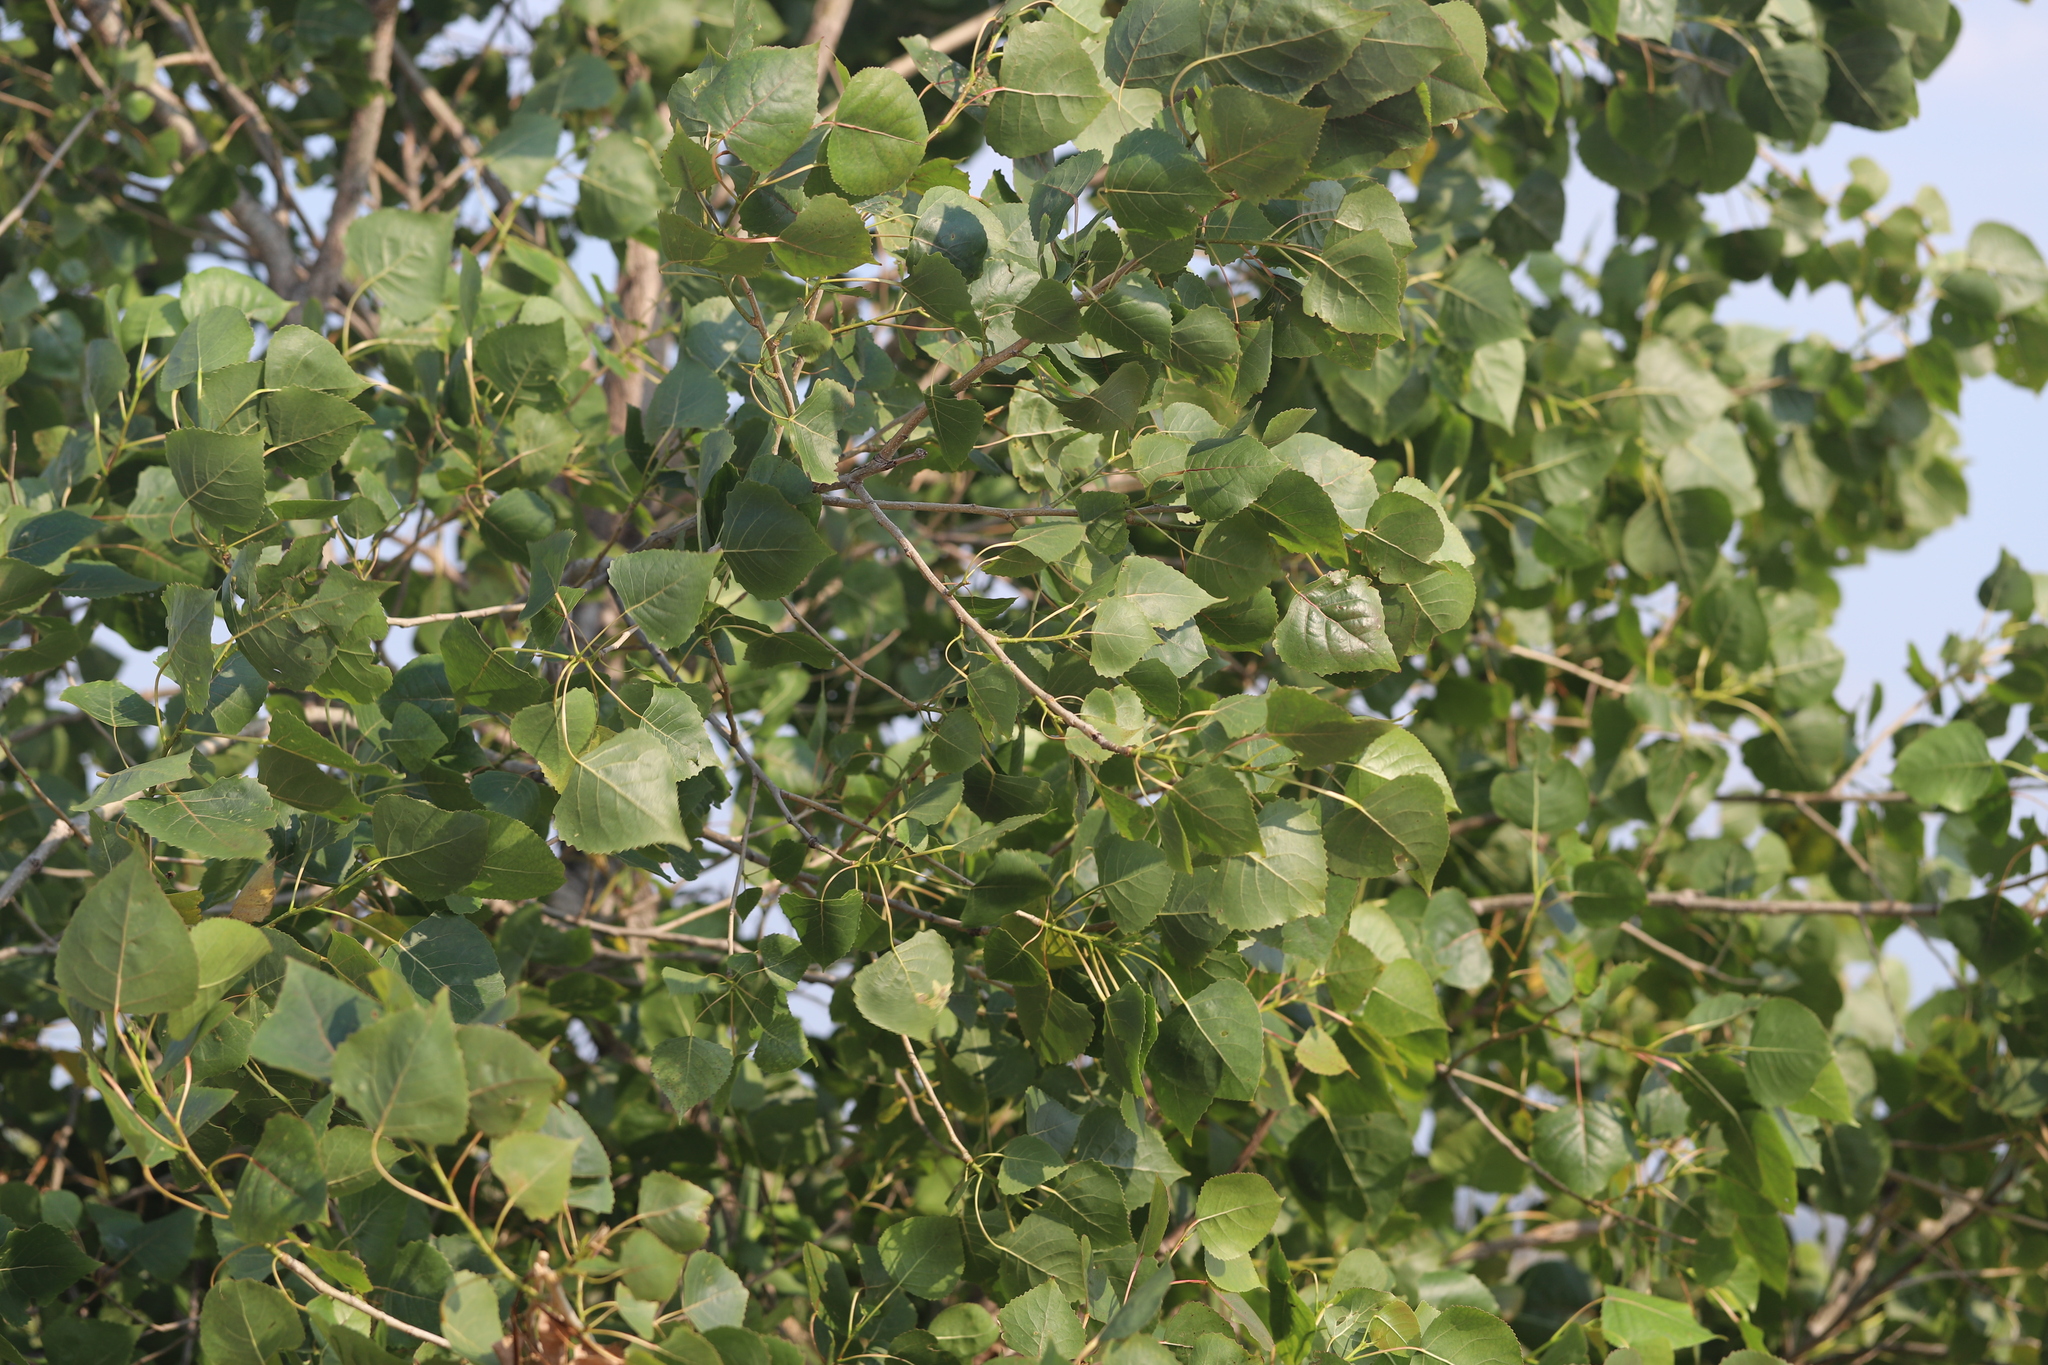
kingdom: Plantae
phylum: Tracheophyta
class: Magnoliopsida
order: Malpighiales
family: Salicaceae
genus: Populus
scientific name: Populus deltoides
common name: Eastern cottonwood
